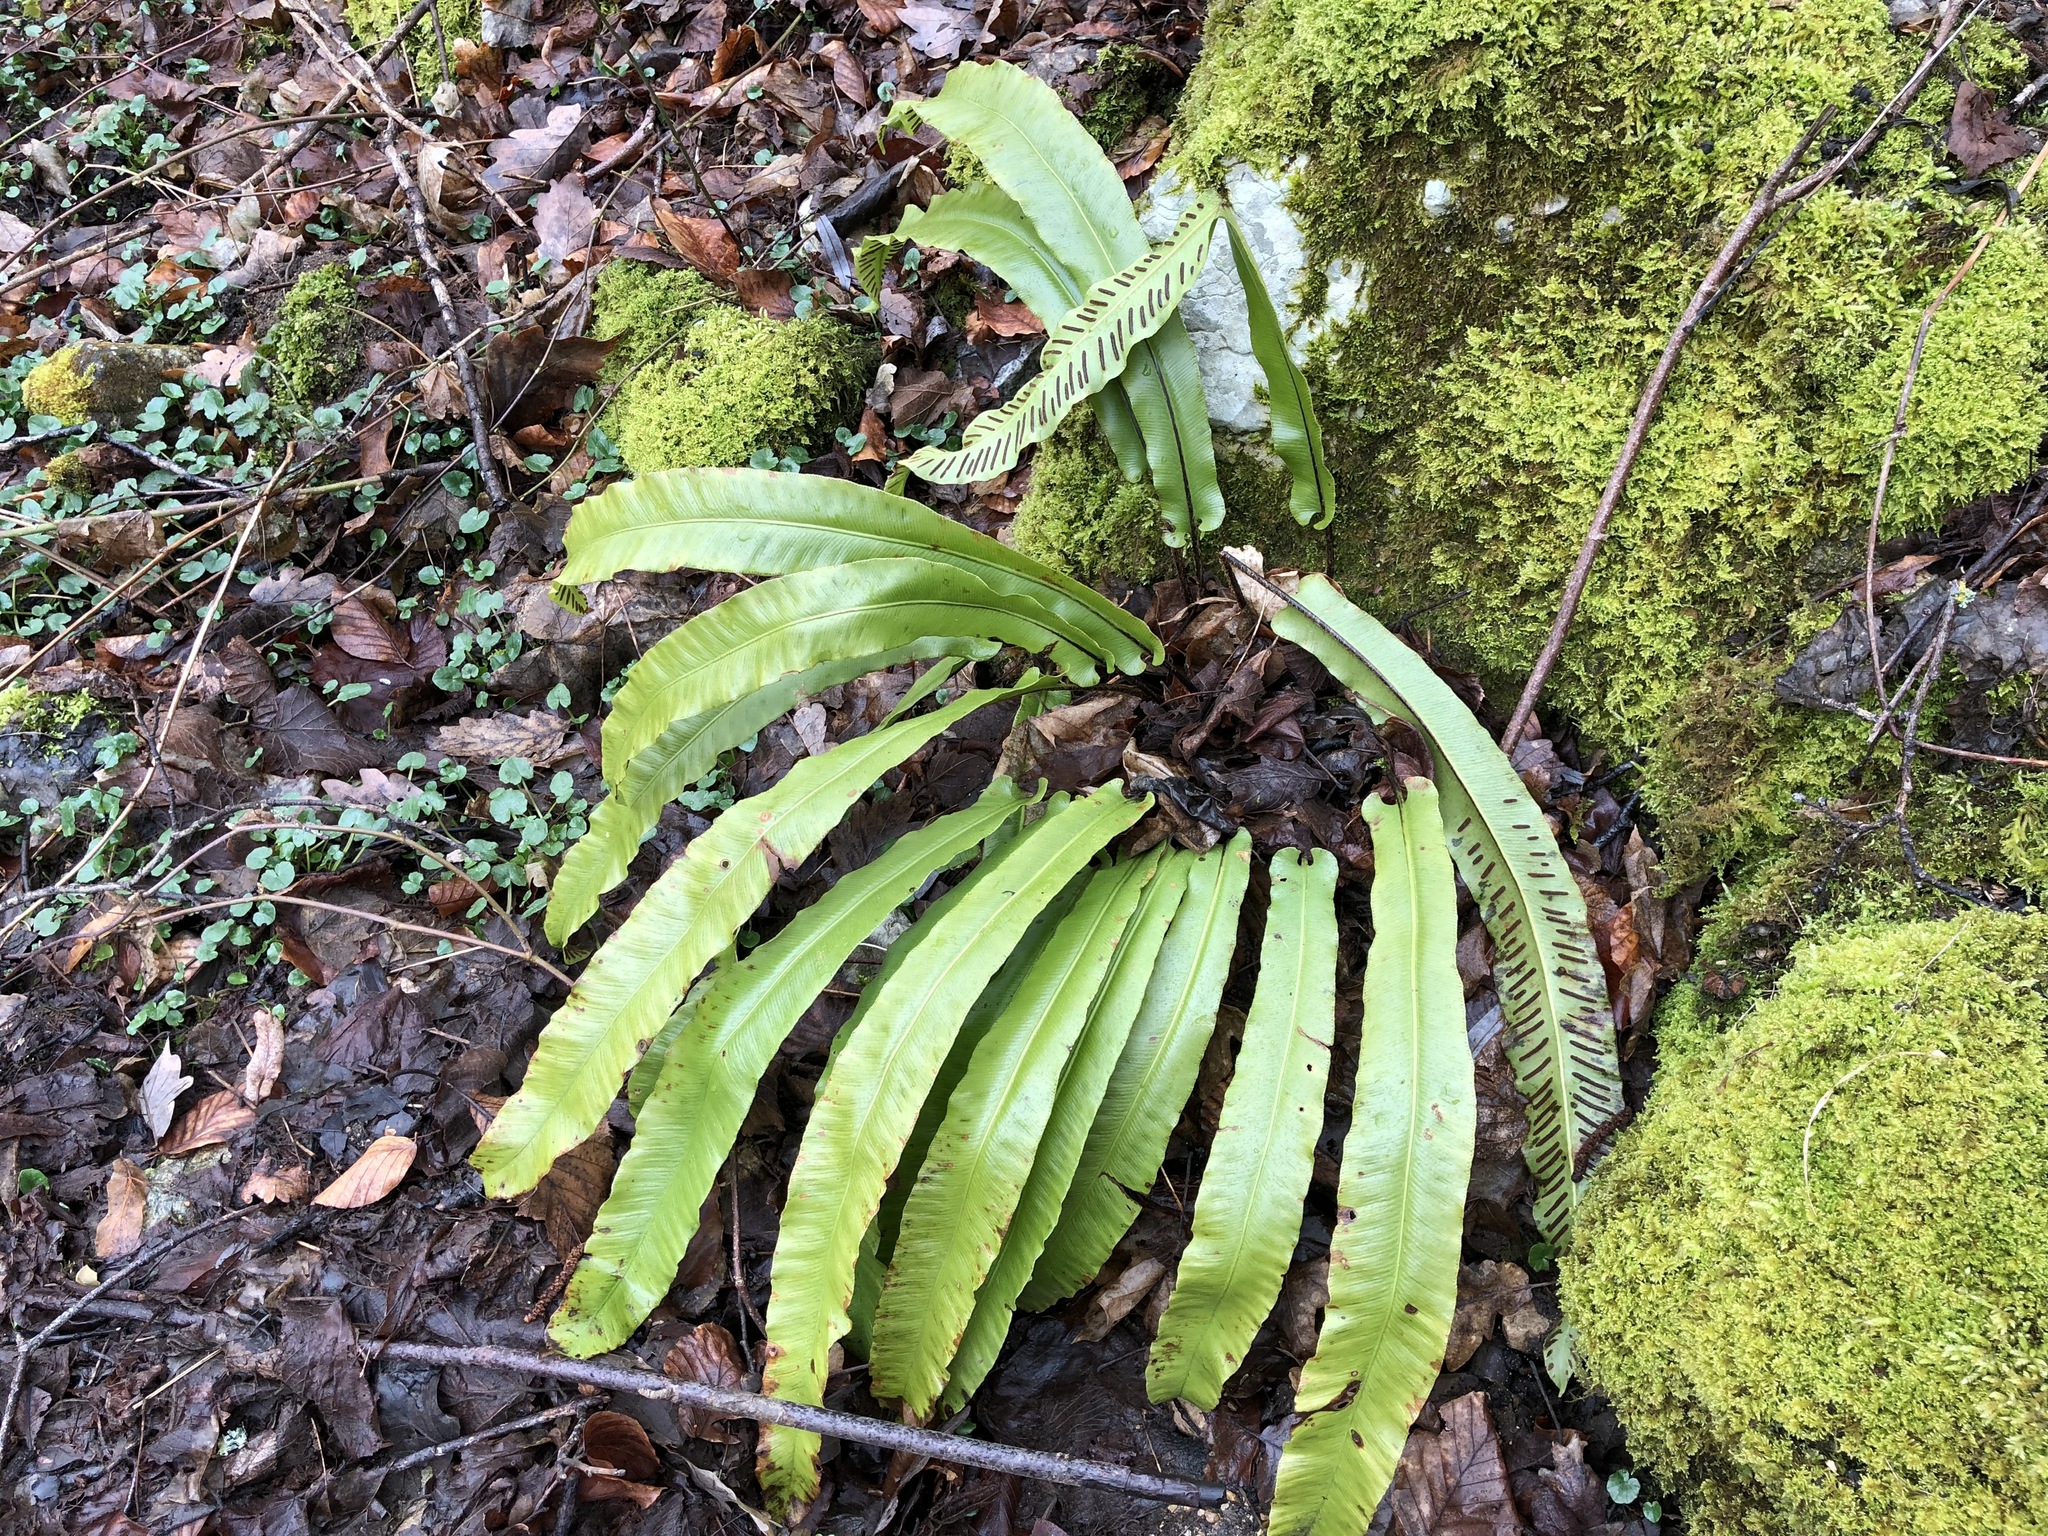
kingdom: Plantae
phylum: Tracheophyta
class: Polypodiopsida
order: Polypodiales
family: Aspleniaceae
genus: Asplenium
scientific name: Asplenium scolopendrium
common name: Hart's-tongue fern
